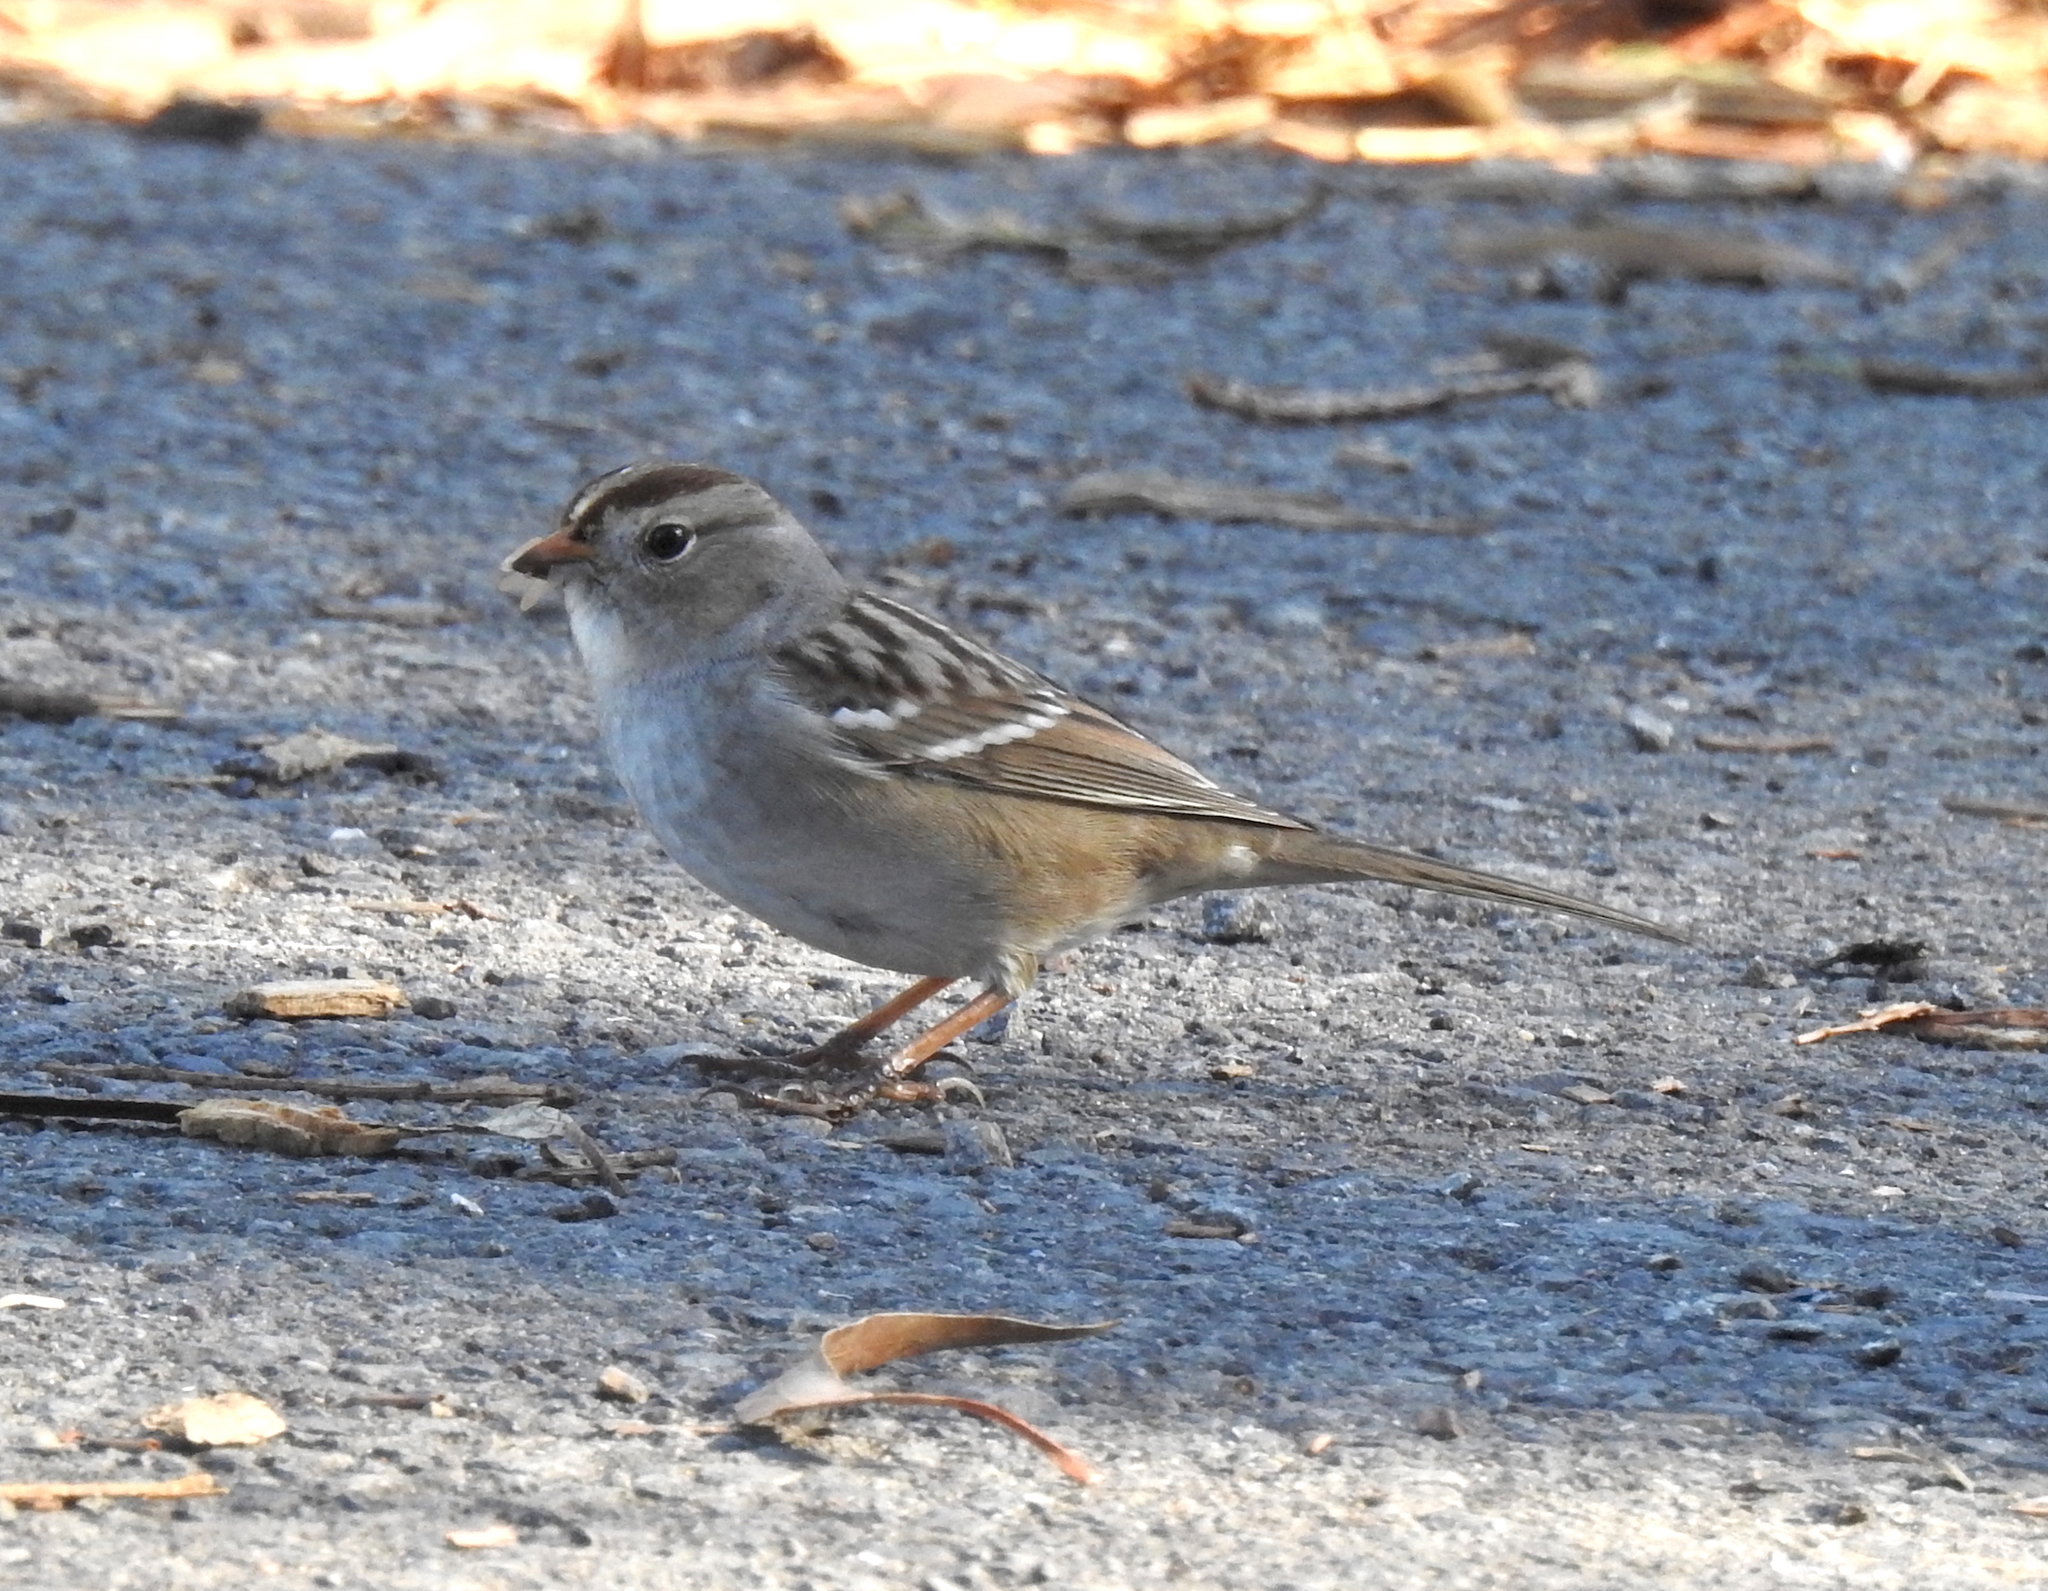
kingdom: Animalia
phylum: Chordata
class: Aves
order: Passeriformes
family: Passerellidae
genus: Zonotrichia
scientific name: Zonotrichia leucophrys
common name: White-crowned sparrow
